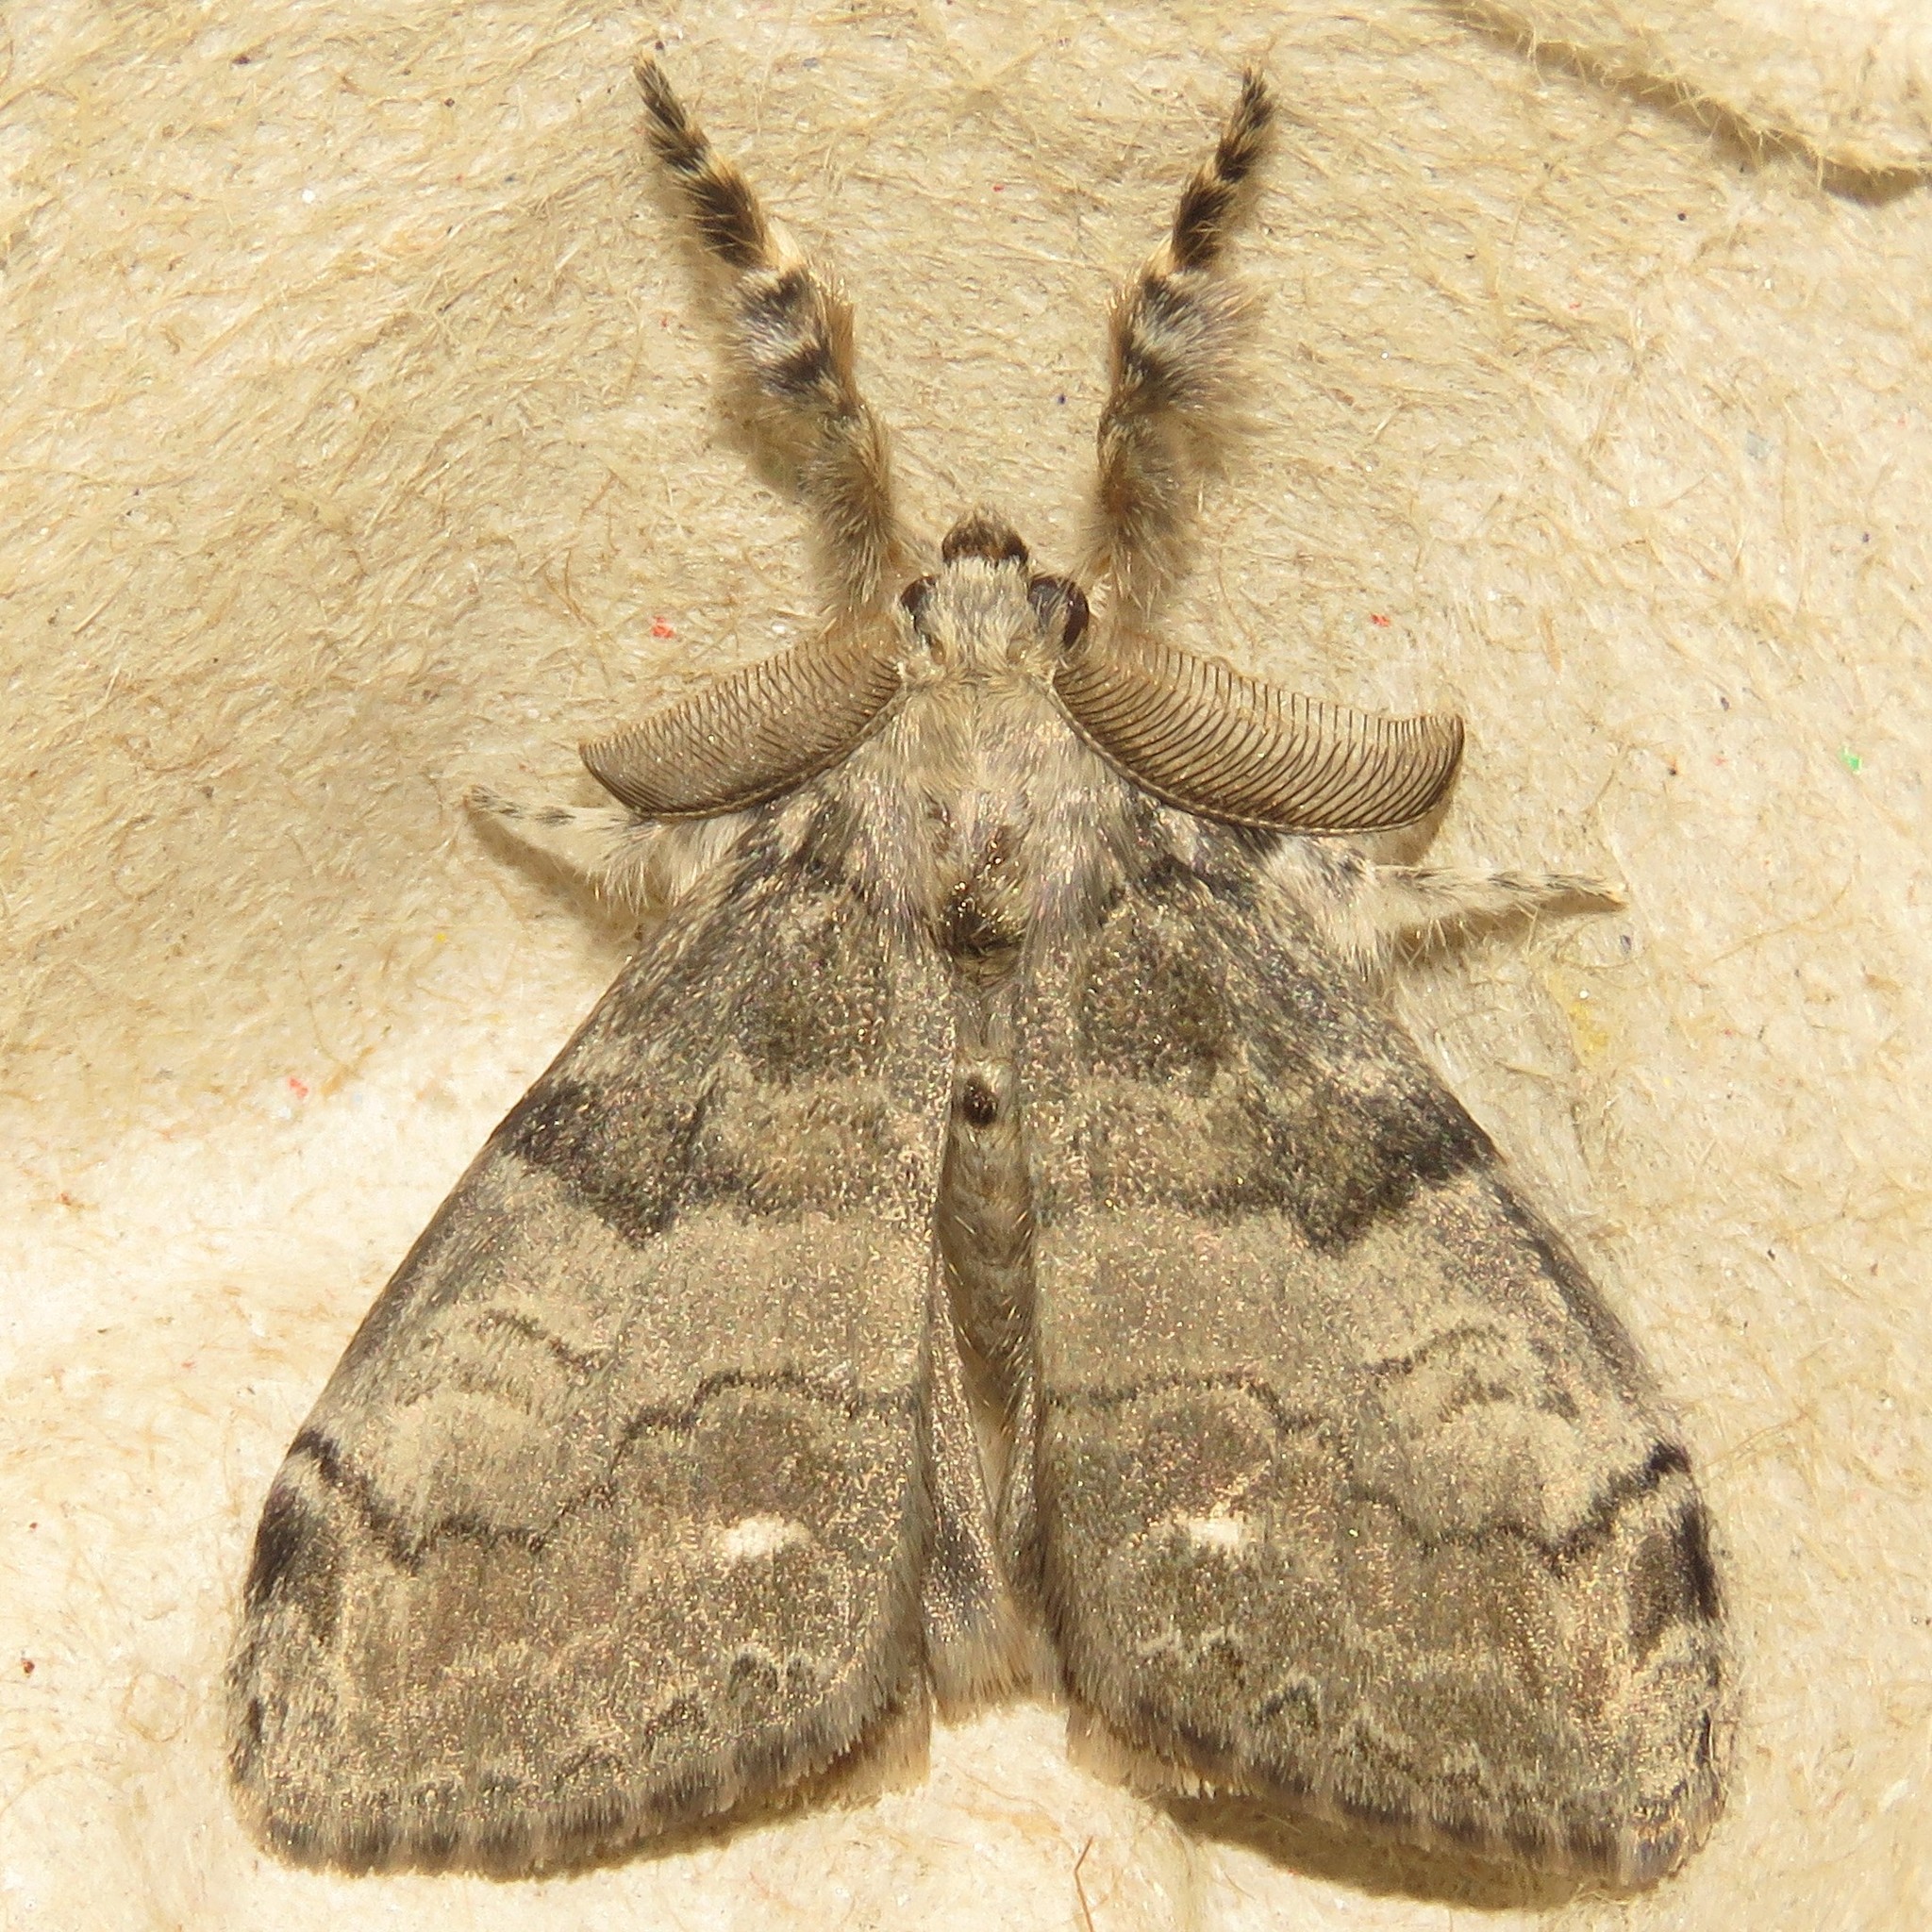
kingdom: Animalia
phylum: Arthropoda
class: Insecta
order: Lepidoptera
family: Erebidae
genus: Orgyia
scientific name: Orgyia leucostigma
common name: White-marked tussock moth
